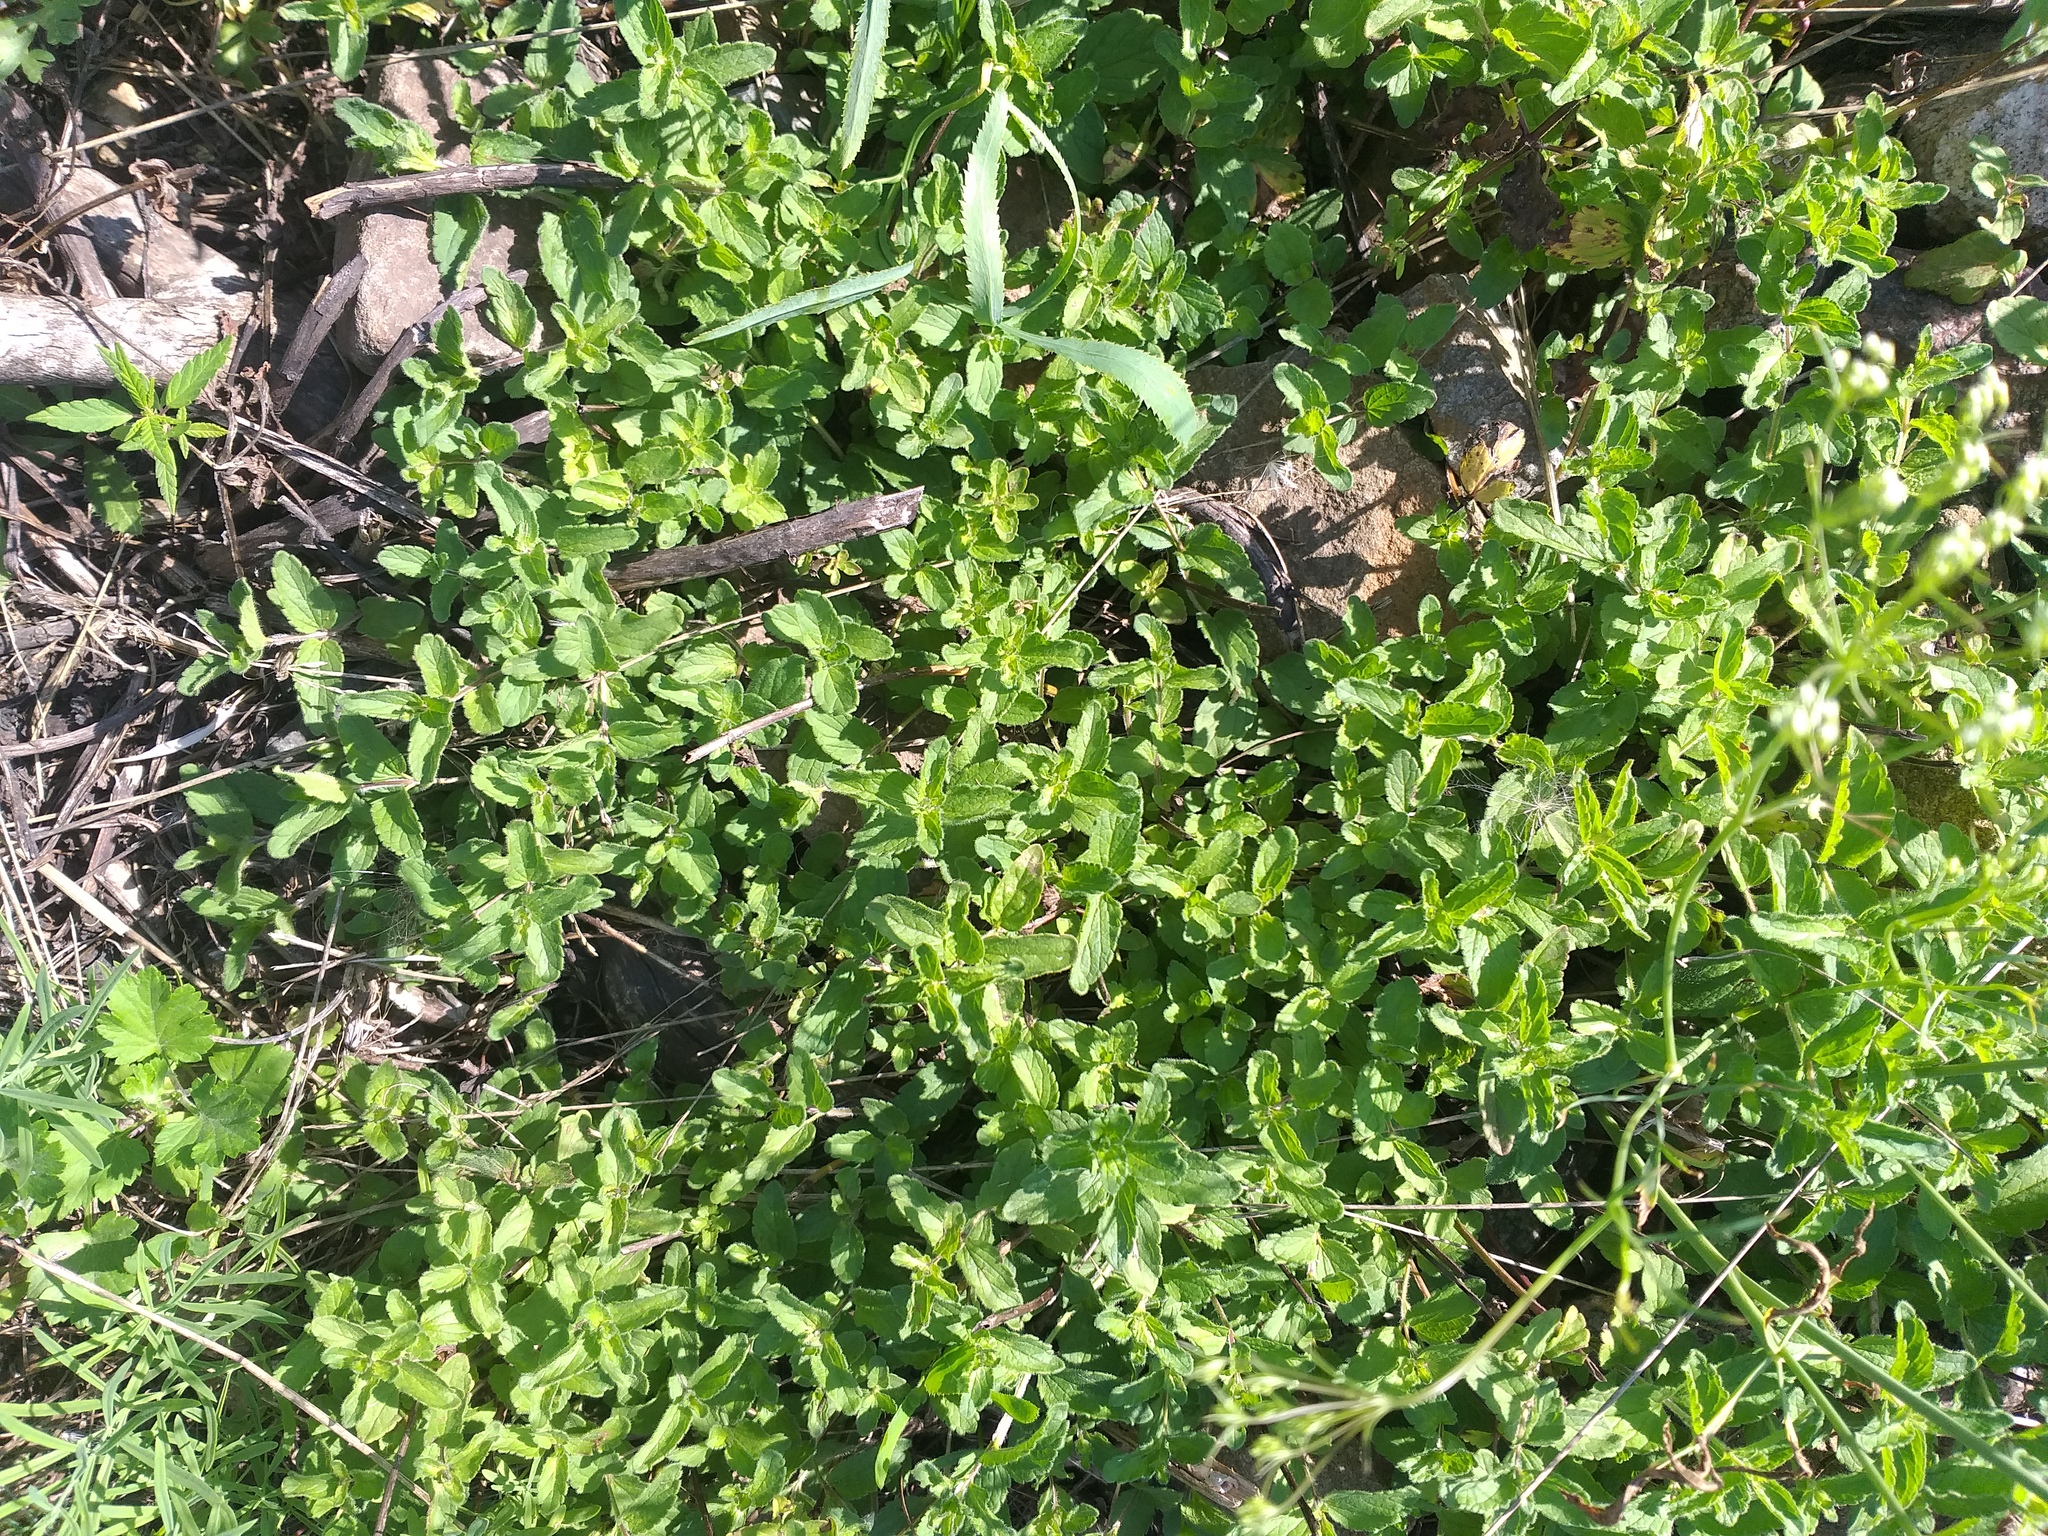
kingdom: Plantae
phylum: Tracheophyta
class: Magnoliopsida
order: Lamiales
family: Plantaginaceae
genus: Veronica
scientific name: Veronica chamaedrys
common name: Germander speedwell
